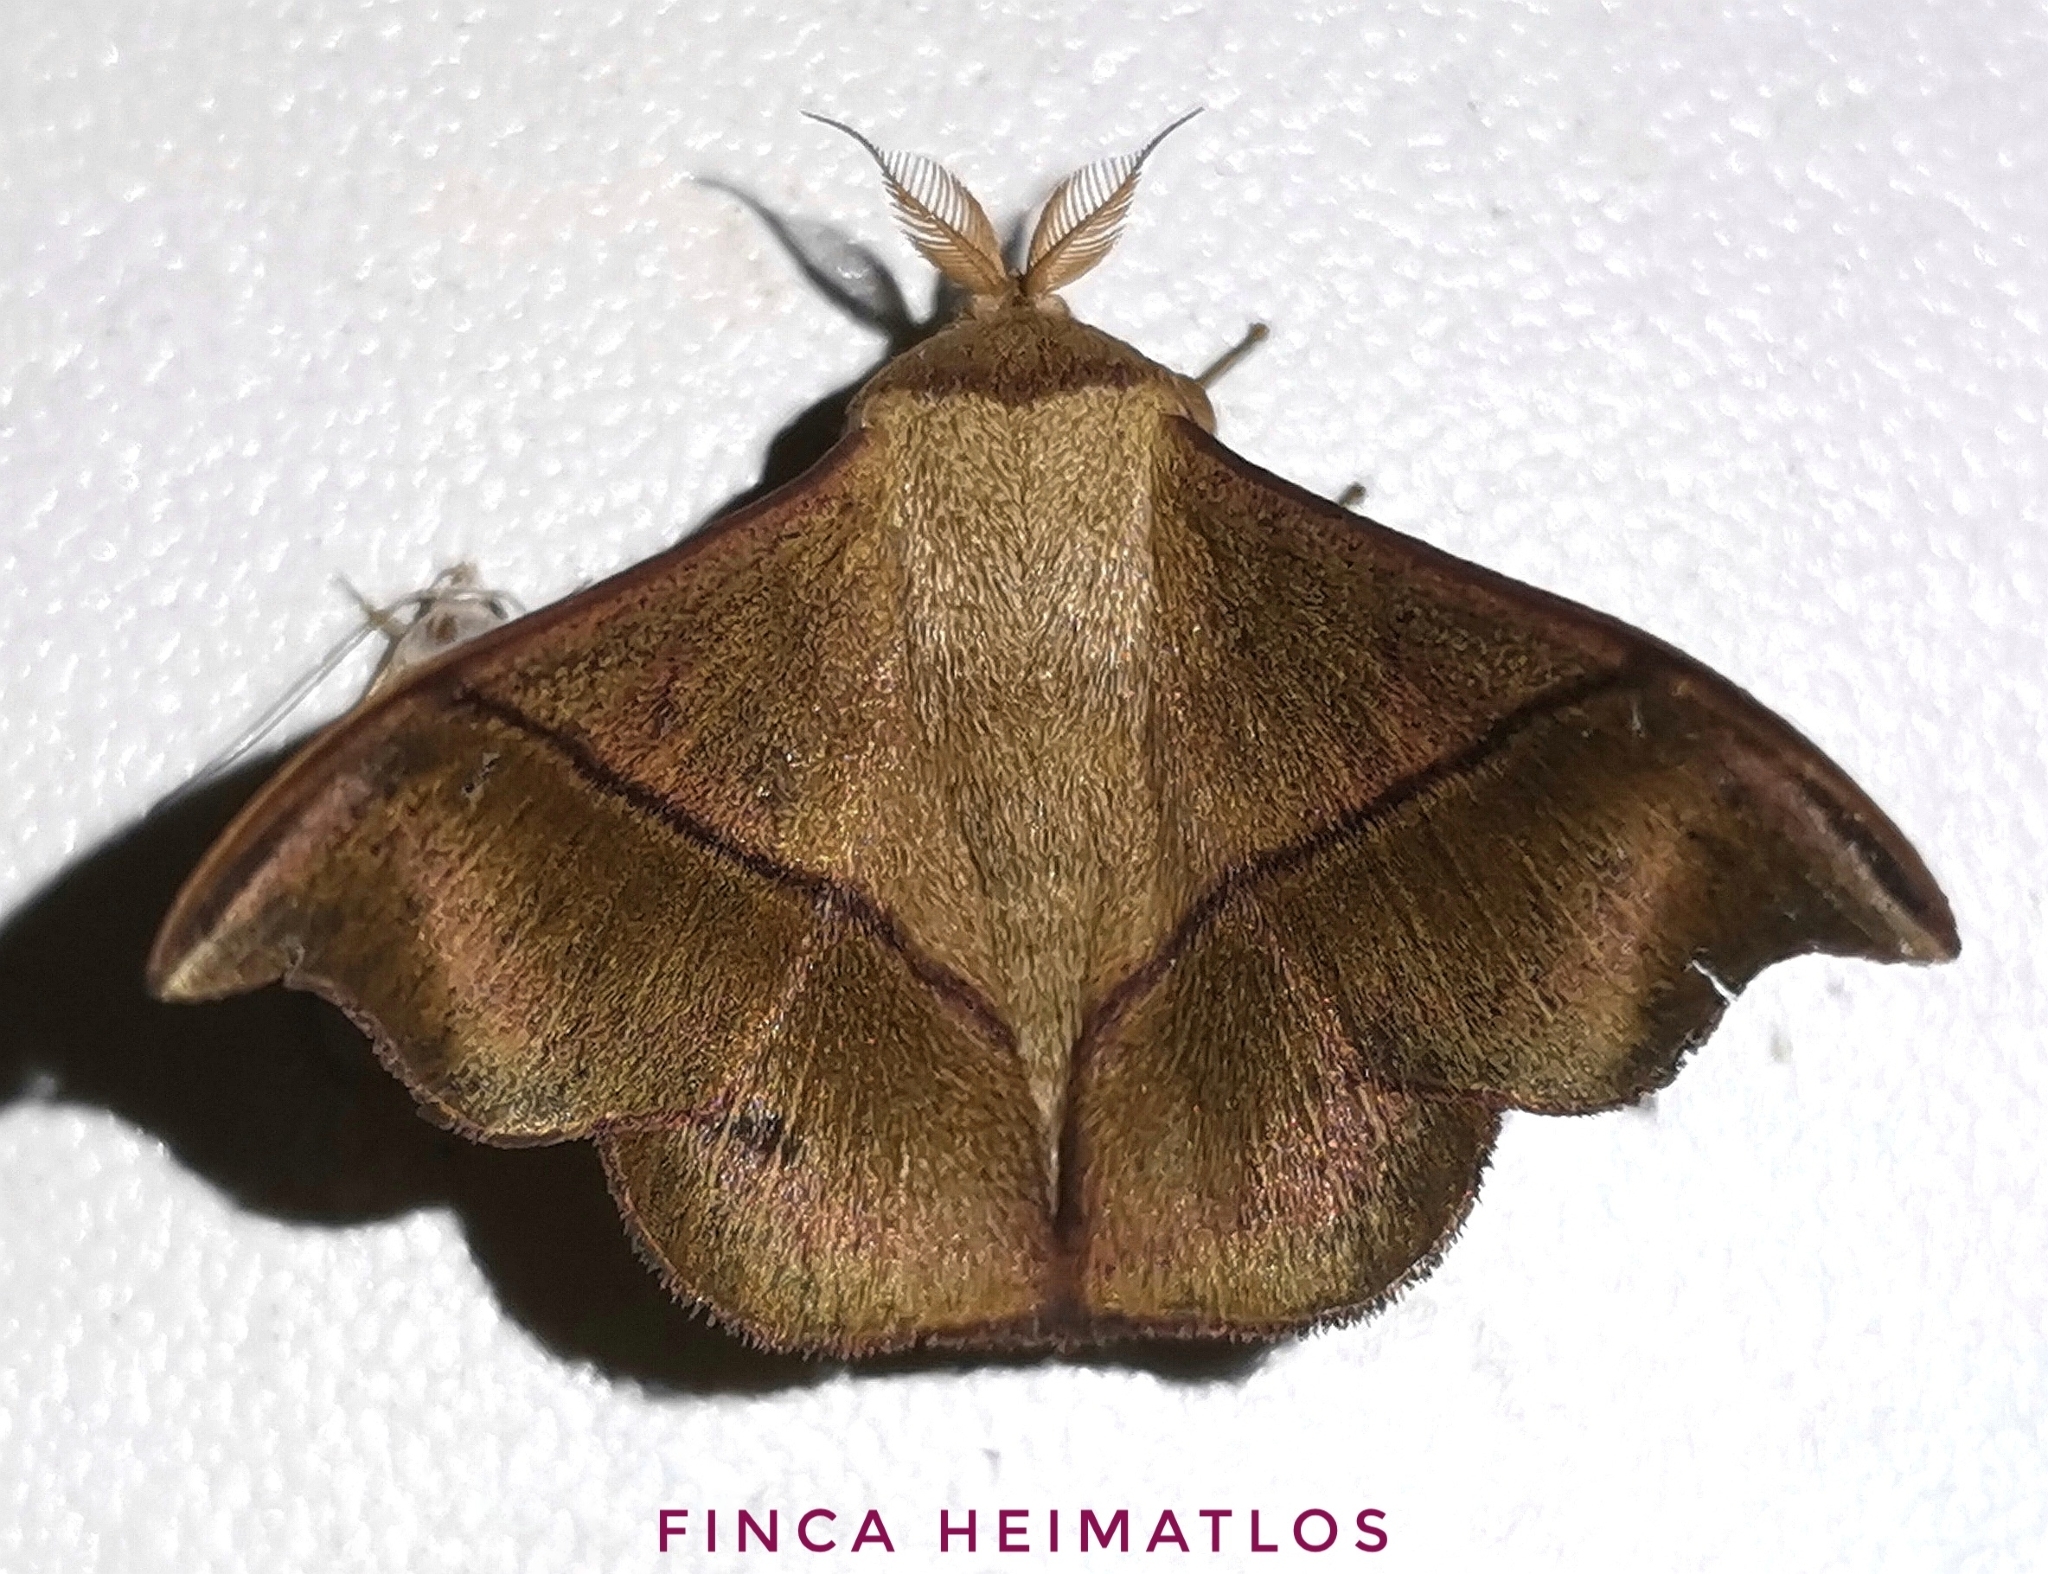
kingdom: Animalia
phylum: Arthropoda
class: Insecta
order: Lepidoptera
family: Mimallonidae
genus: Alheita
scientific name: Alheita anoca
